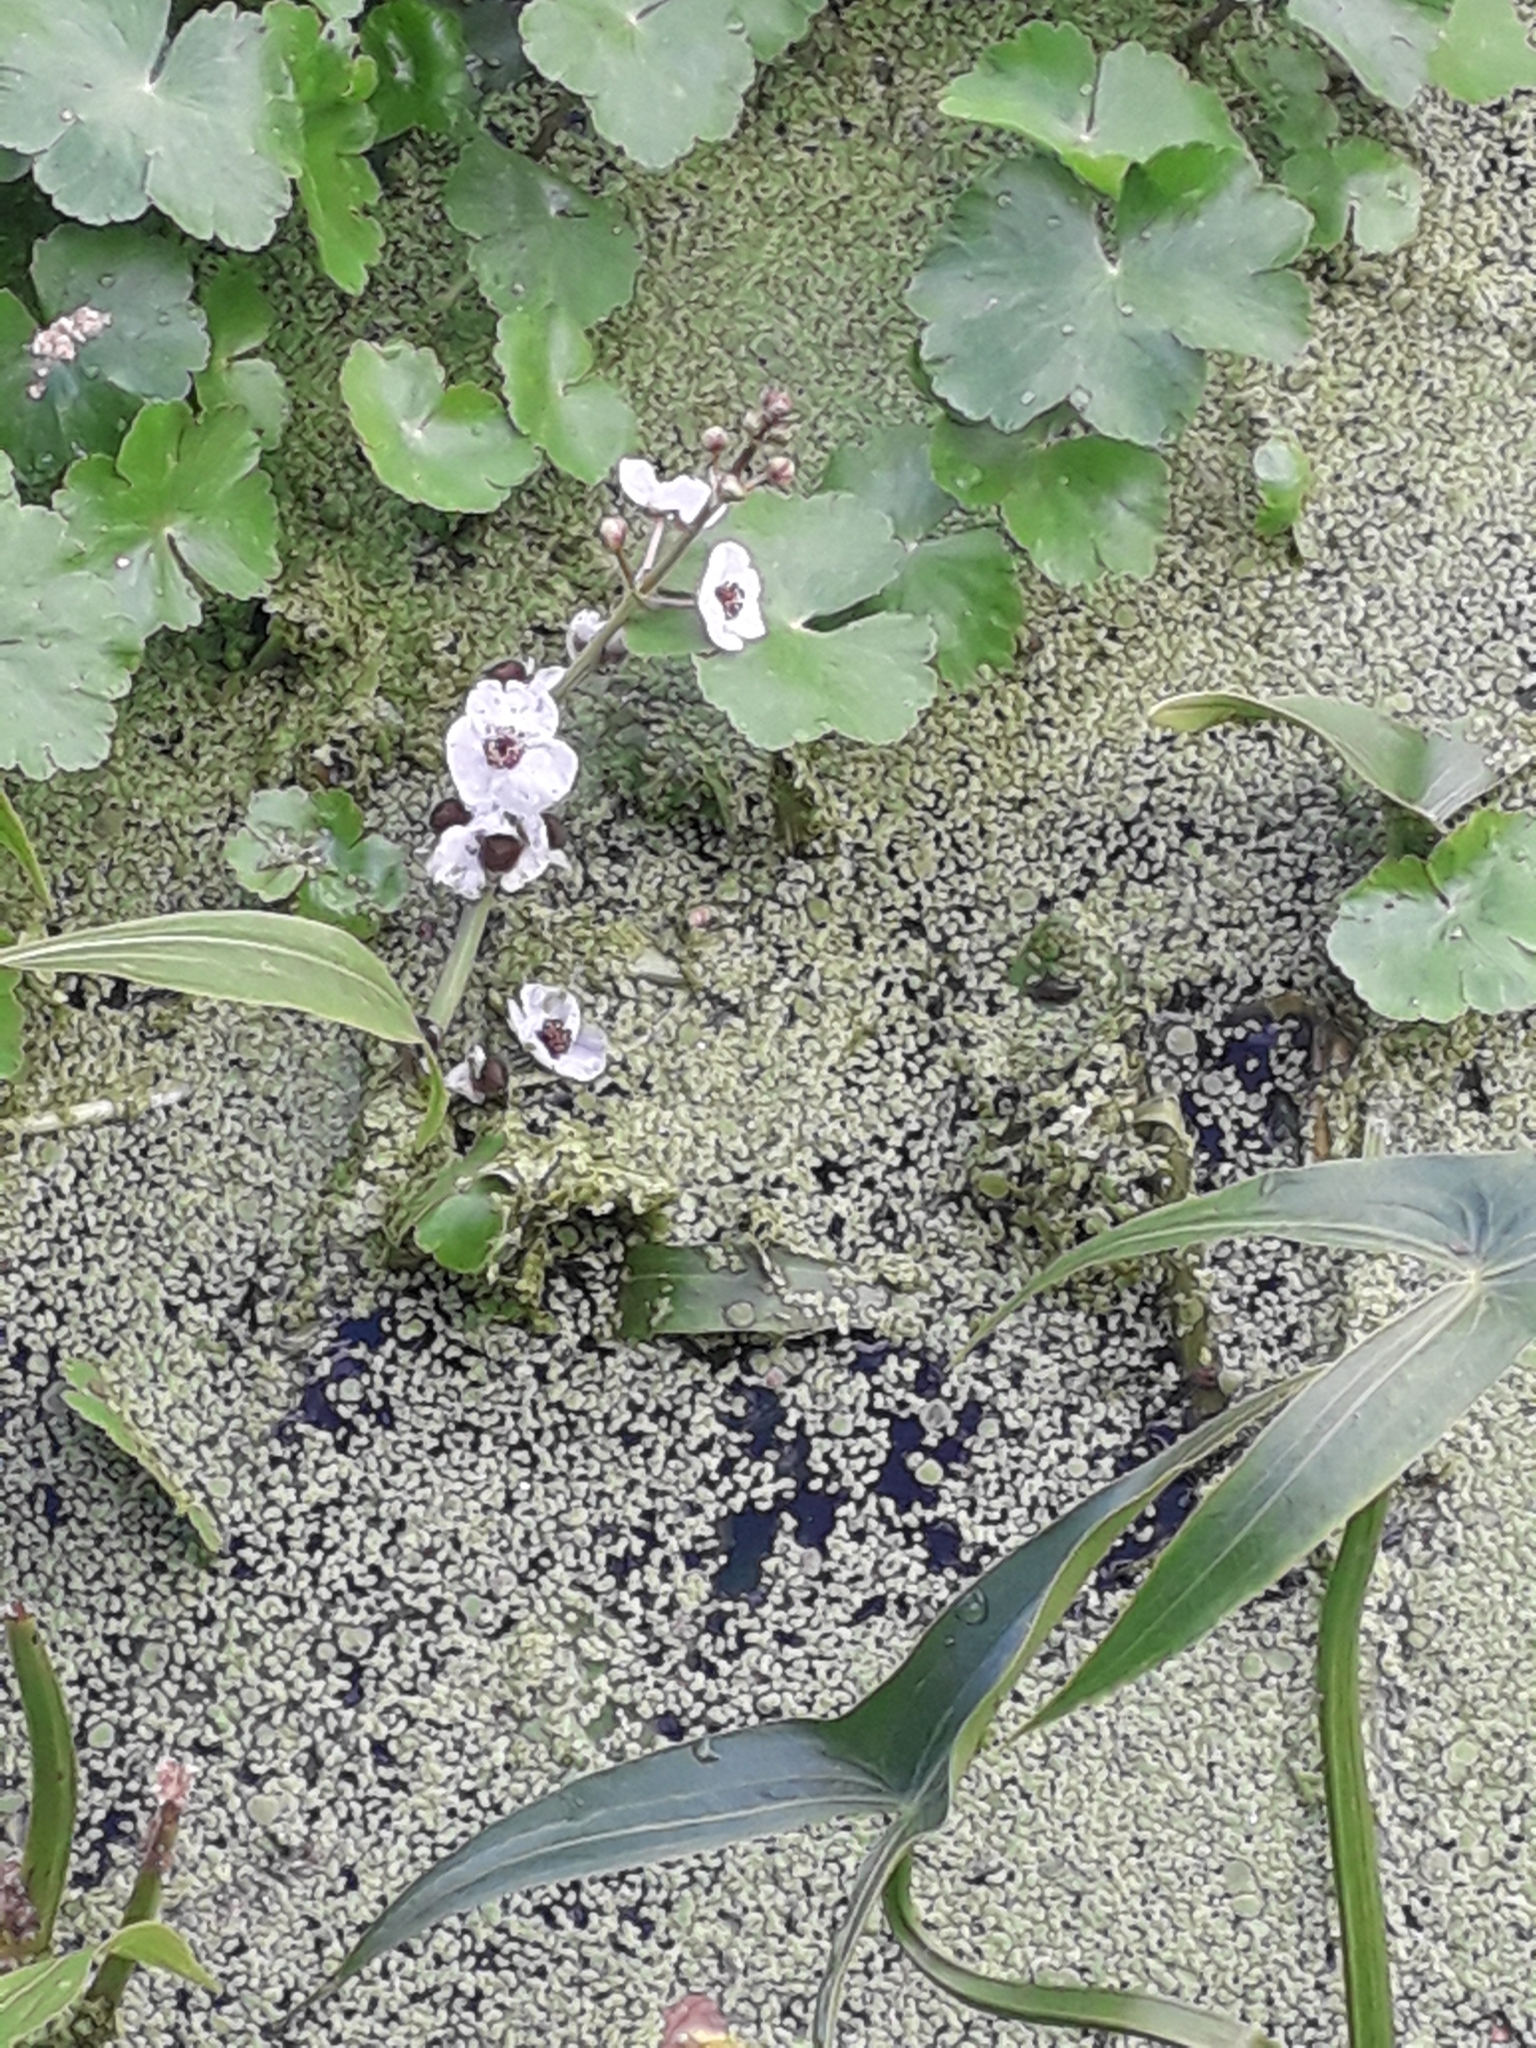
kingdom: Plantae
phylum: Tracheophyta
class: Liliopsida
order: Alismatales
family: Alismataceae
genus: Sagittaria
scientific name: Sagittaria sagittifolia
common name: Arrowhead
